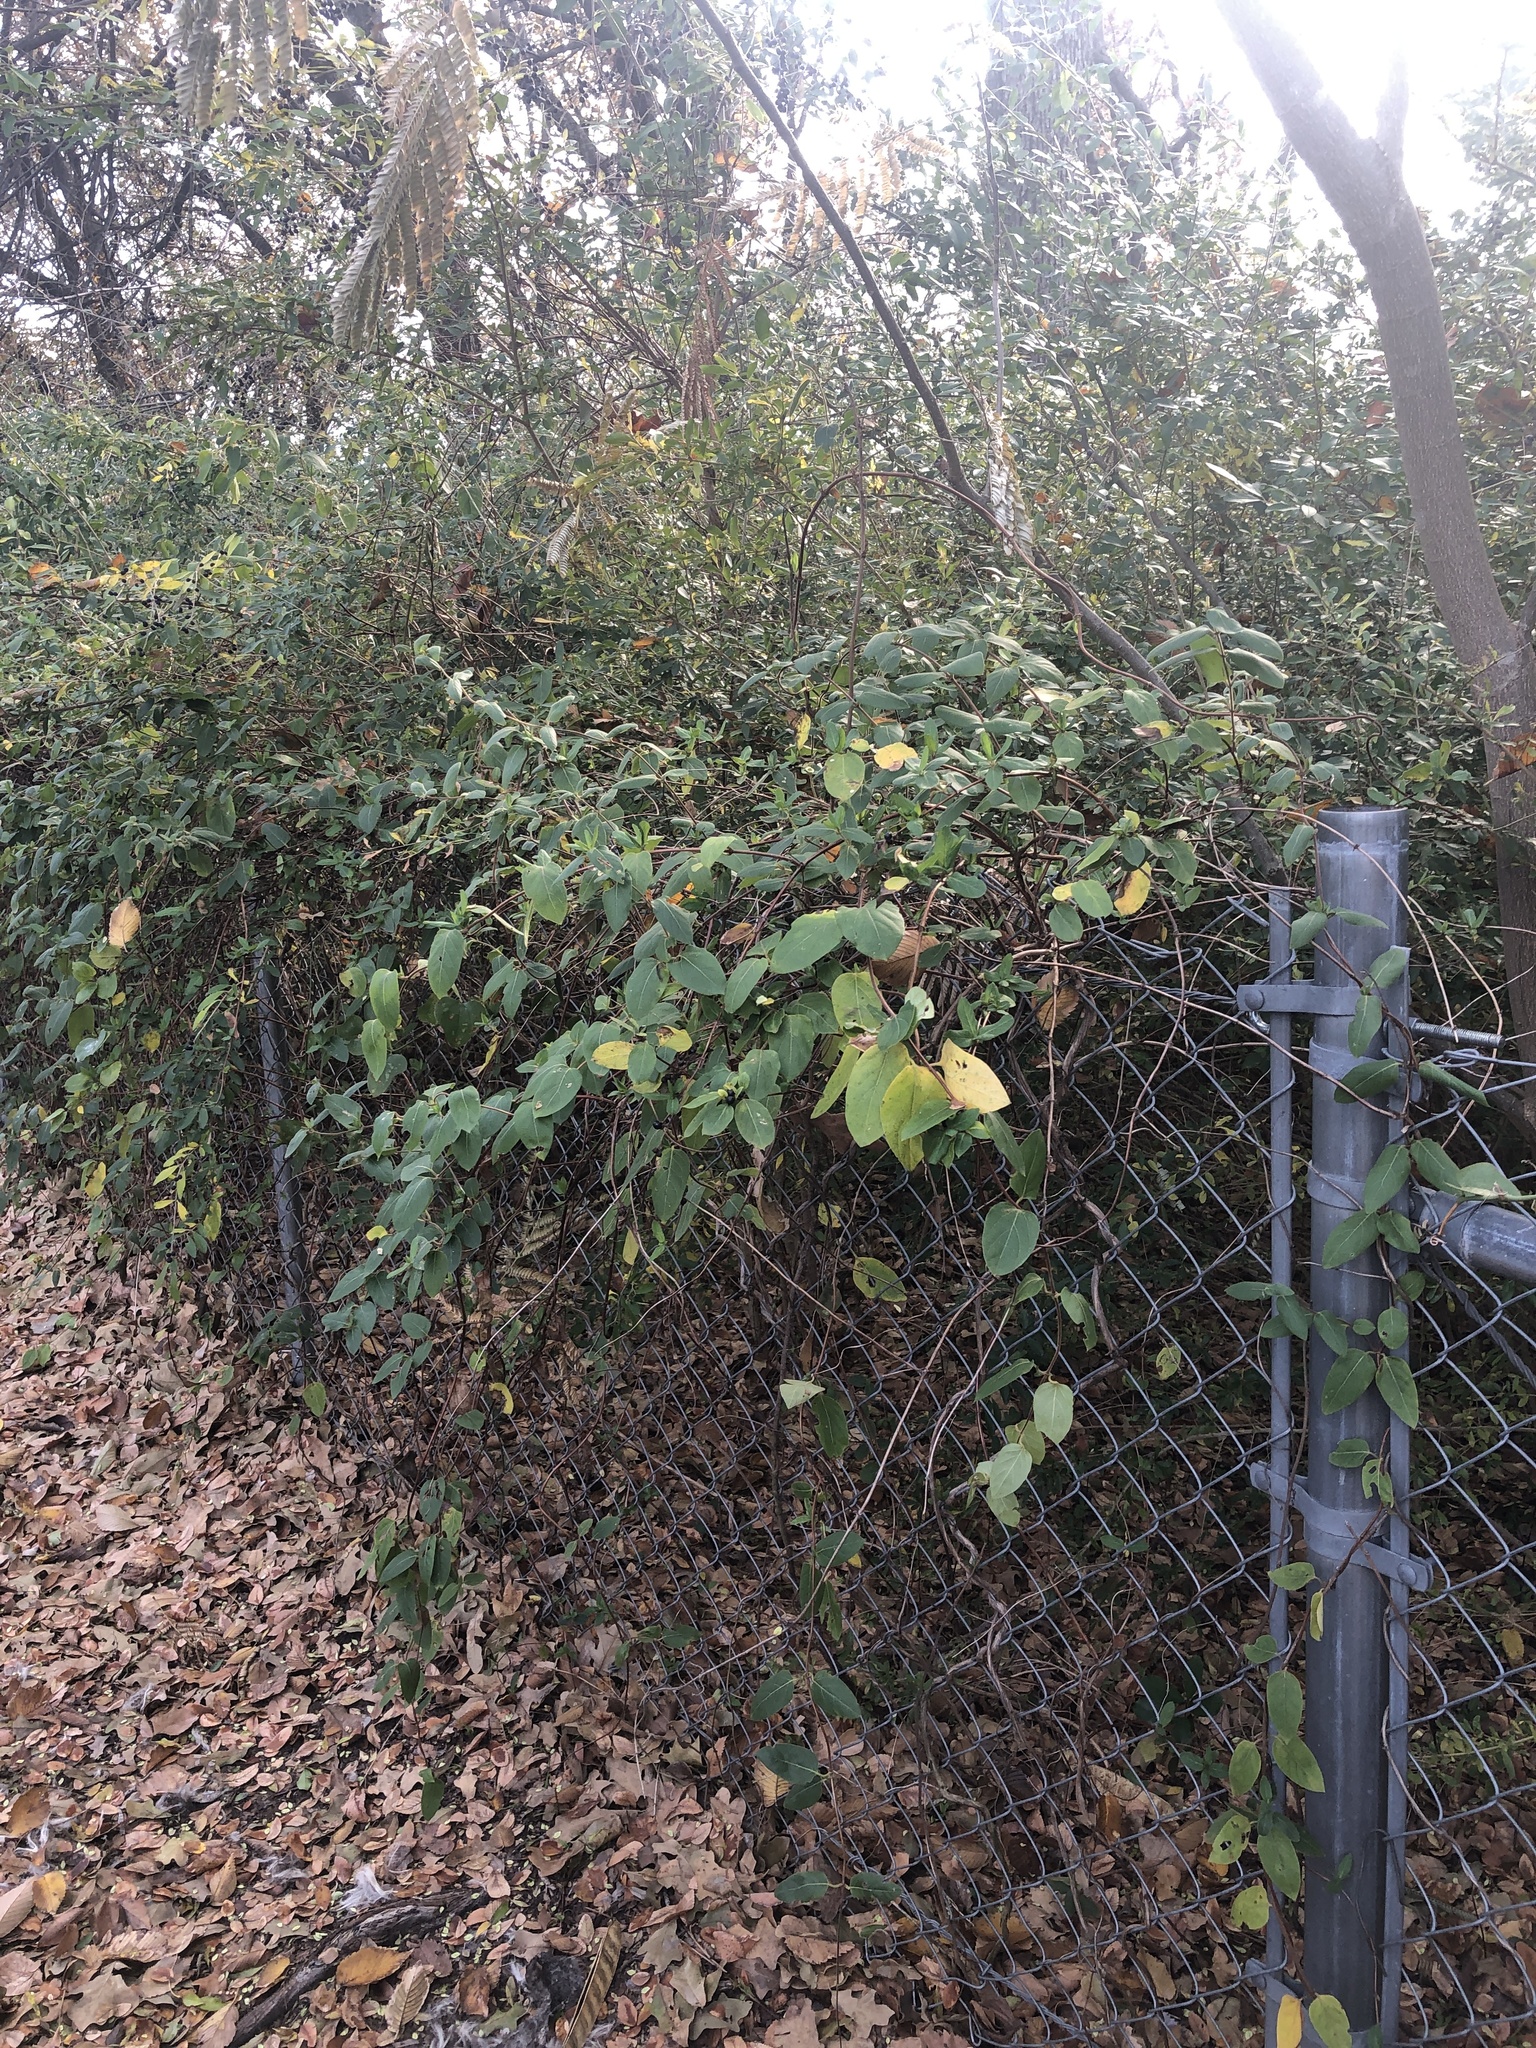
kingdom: Plantae
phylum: Tracheophyta
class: Magnoliopsida
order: Dipsacales
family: Caprifoliaceae
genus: Lonicera
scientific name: Lonicera japonica
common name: Japanese honeysuckle
